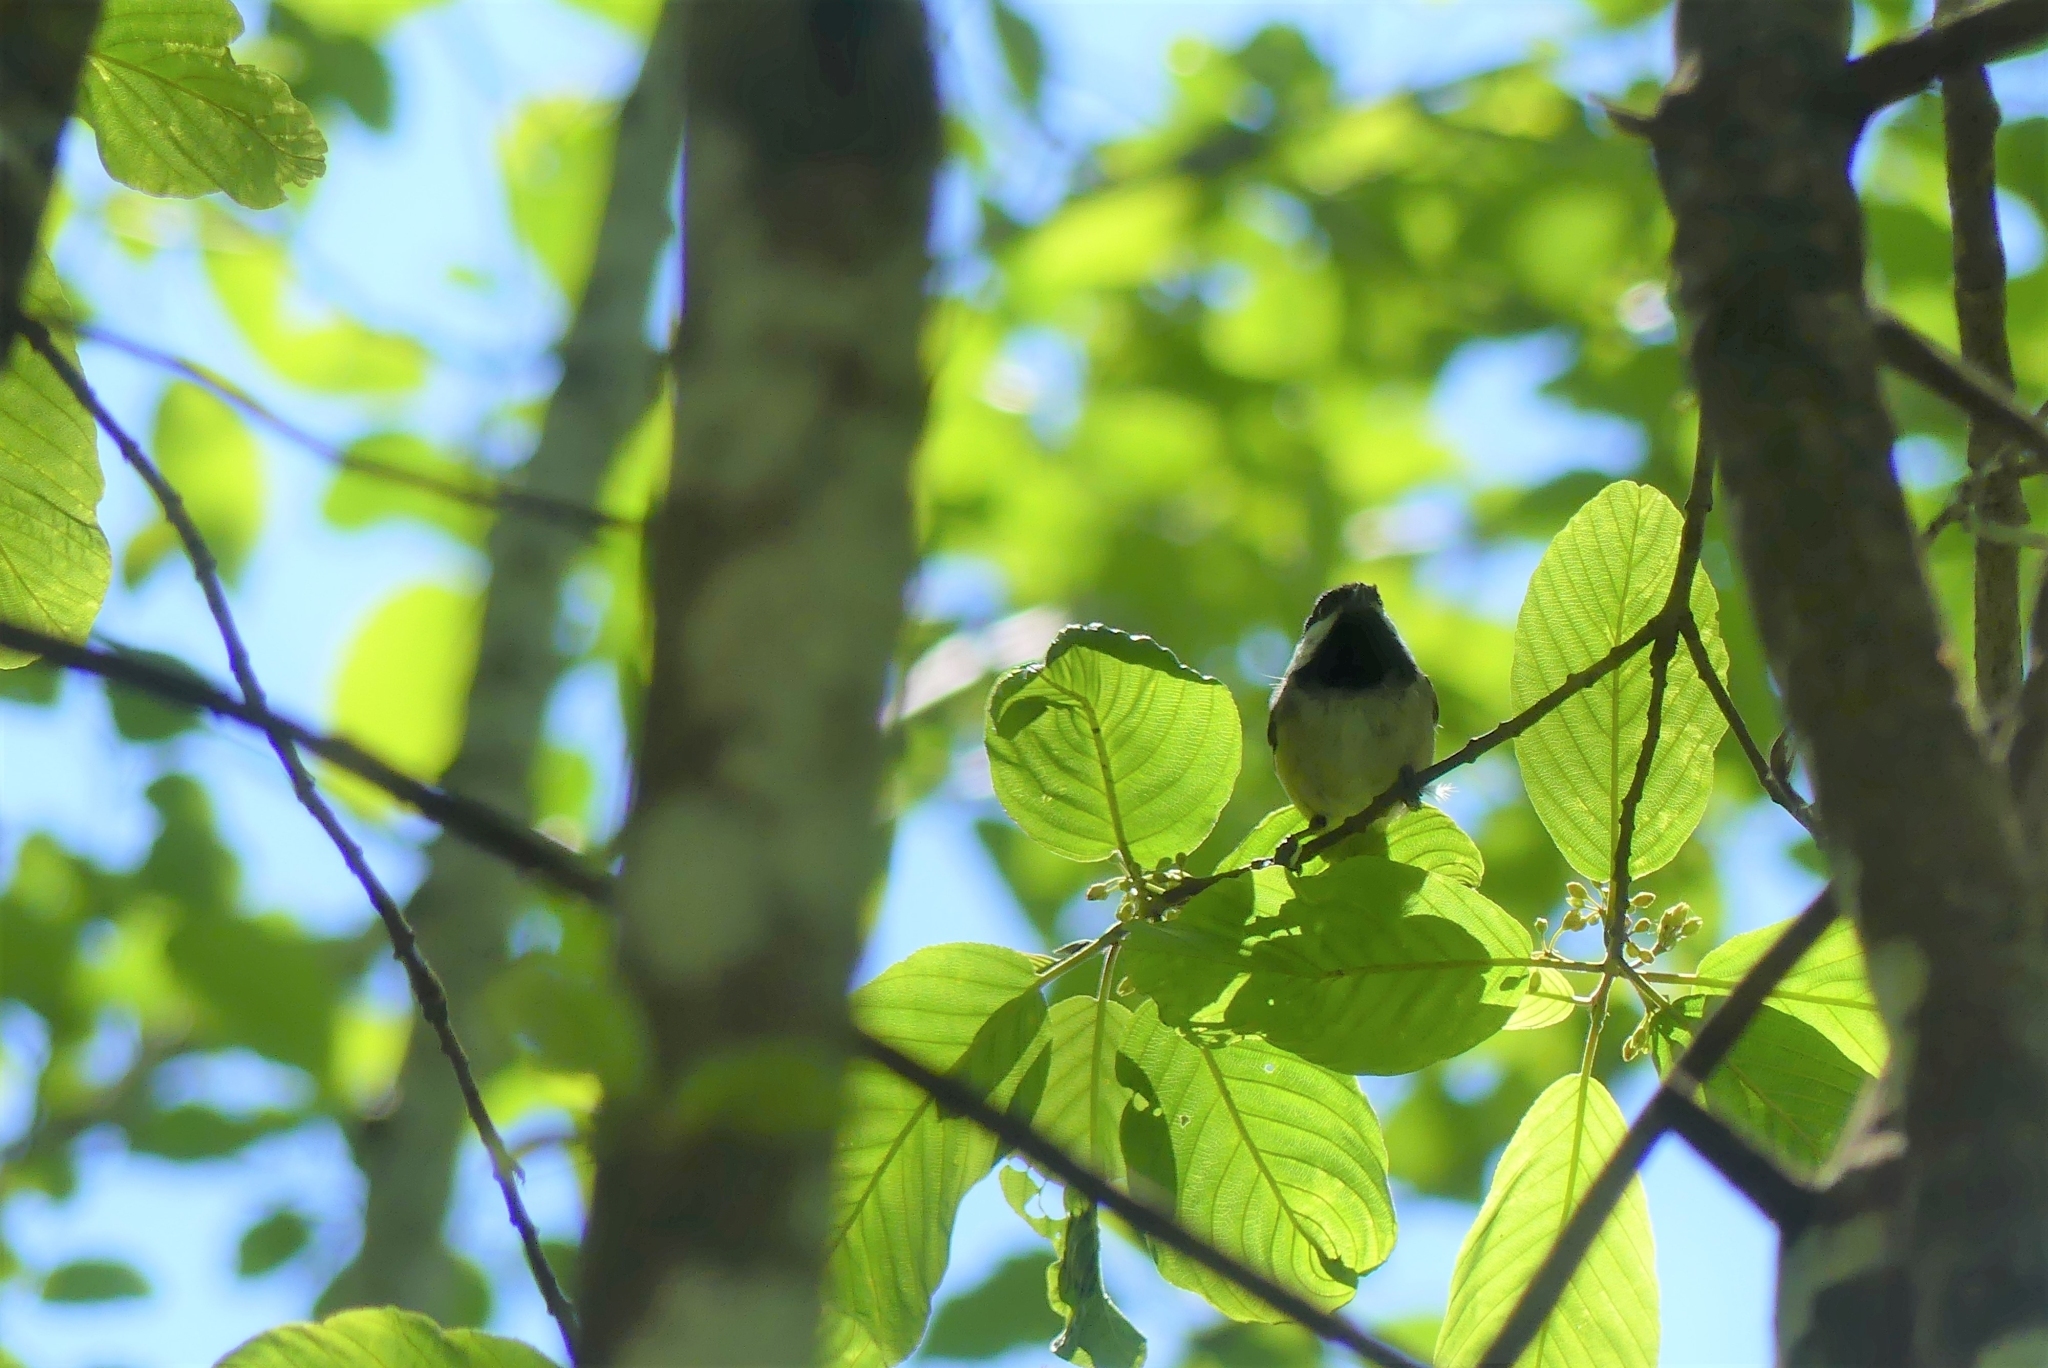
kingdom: Animalia
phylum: Chordata
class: Aves
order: Passeriformes
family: Paridae
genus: Poecile
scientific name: Poecile atricapillus
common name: Black-capped chickadee
